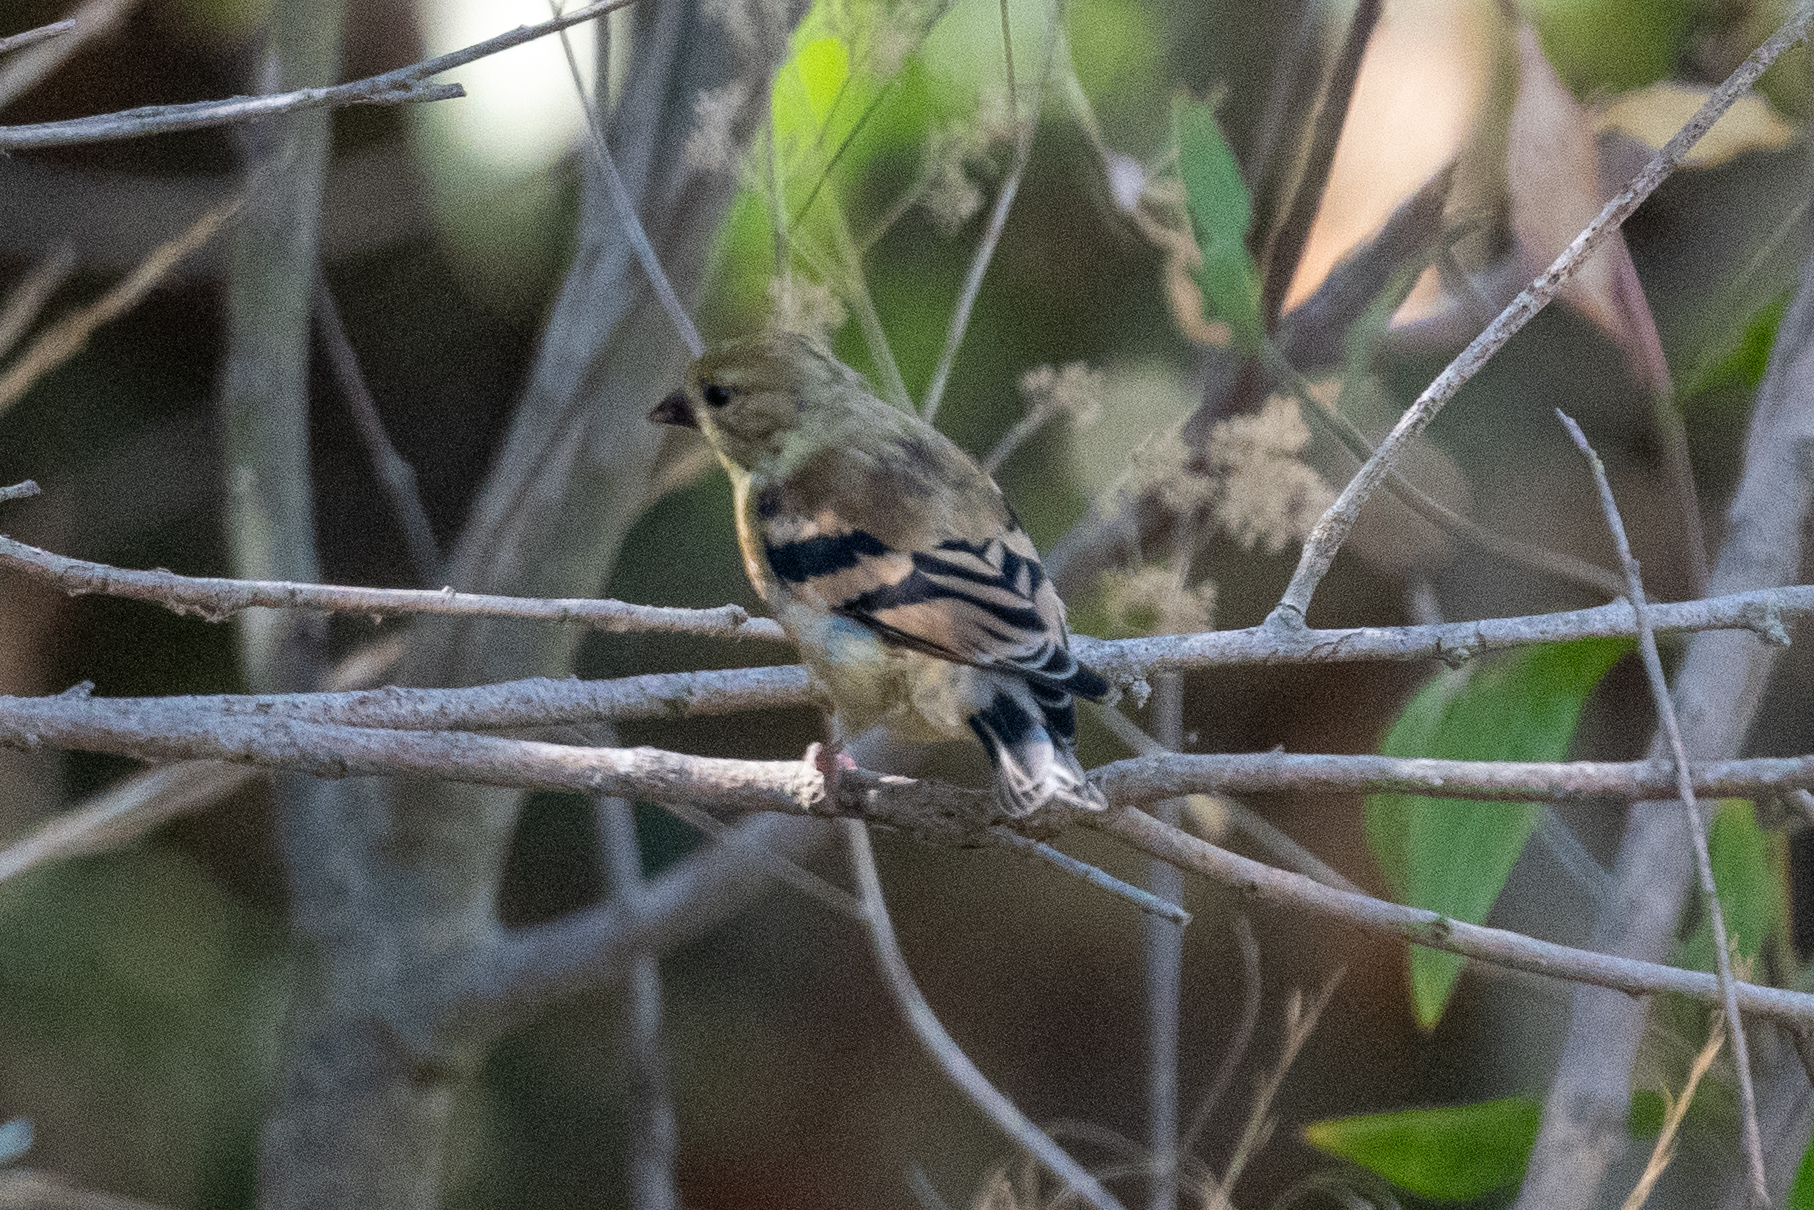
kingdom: Animalia
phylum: Chordata
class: Aves
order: Passeriformes
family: Fringillidae
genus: Spinus
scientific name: Spinus tristis
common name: American goldfinch
